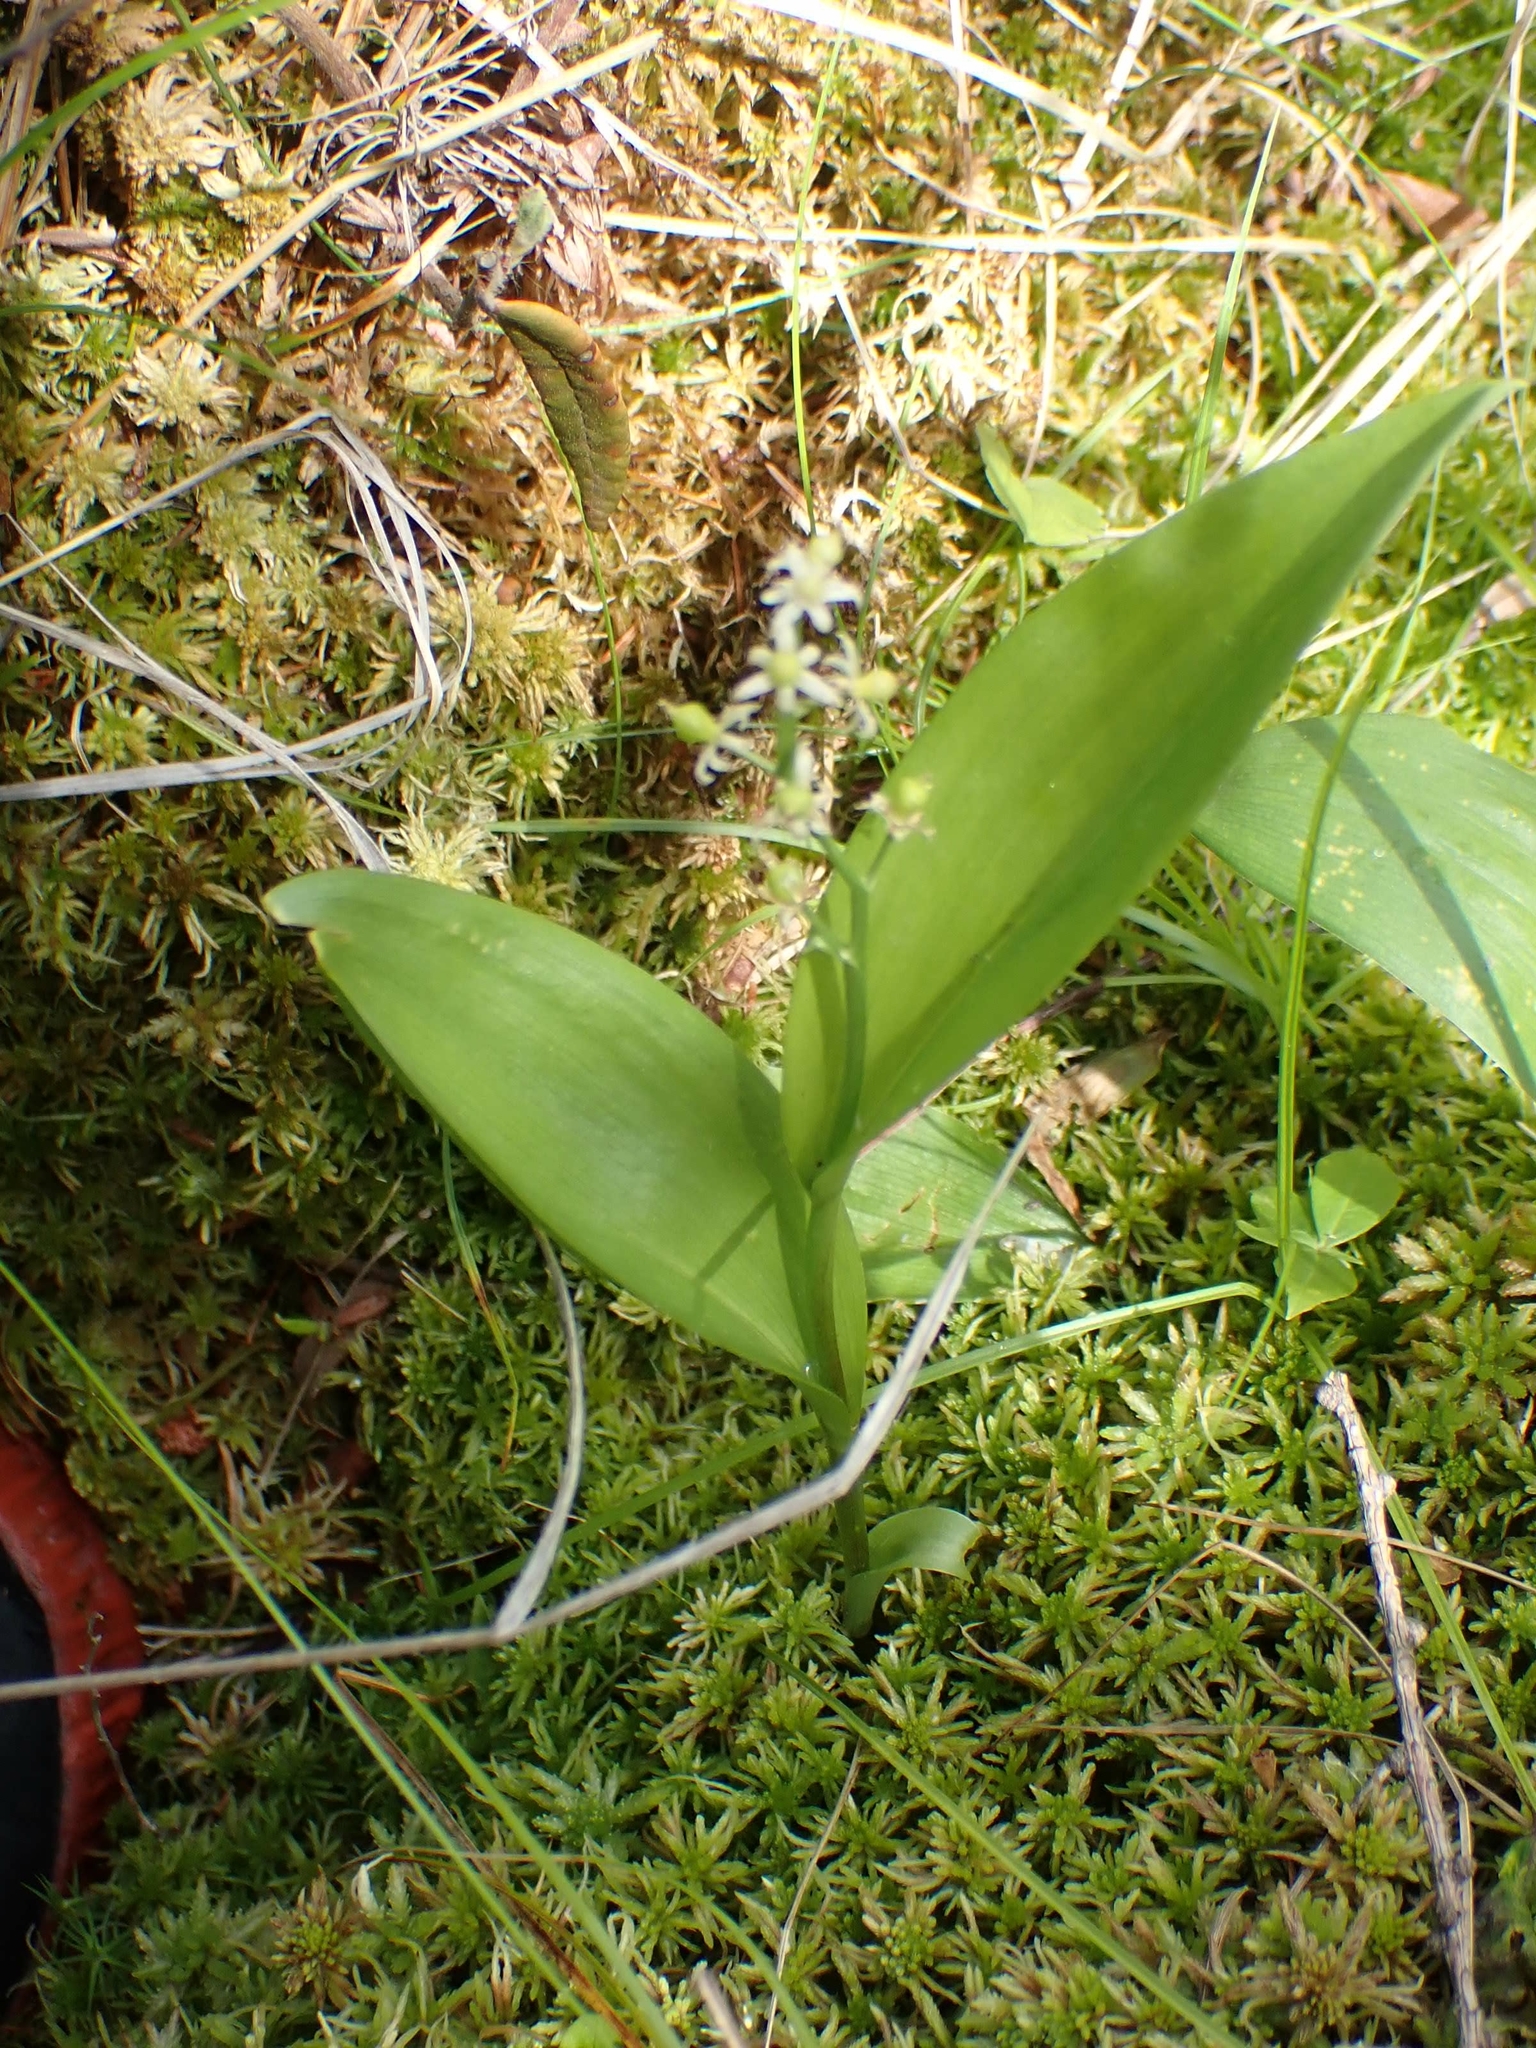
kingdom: Plantae
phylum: Tracheophyta
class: Liliopsida
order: Asparagales
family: Asparagaceae
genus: Maianthemum
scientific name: Maianthemum trifolium
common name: Swamp false solomon's seal
